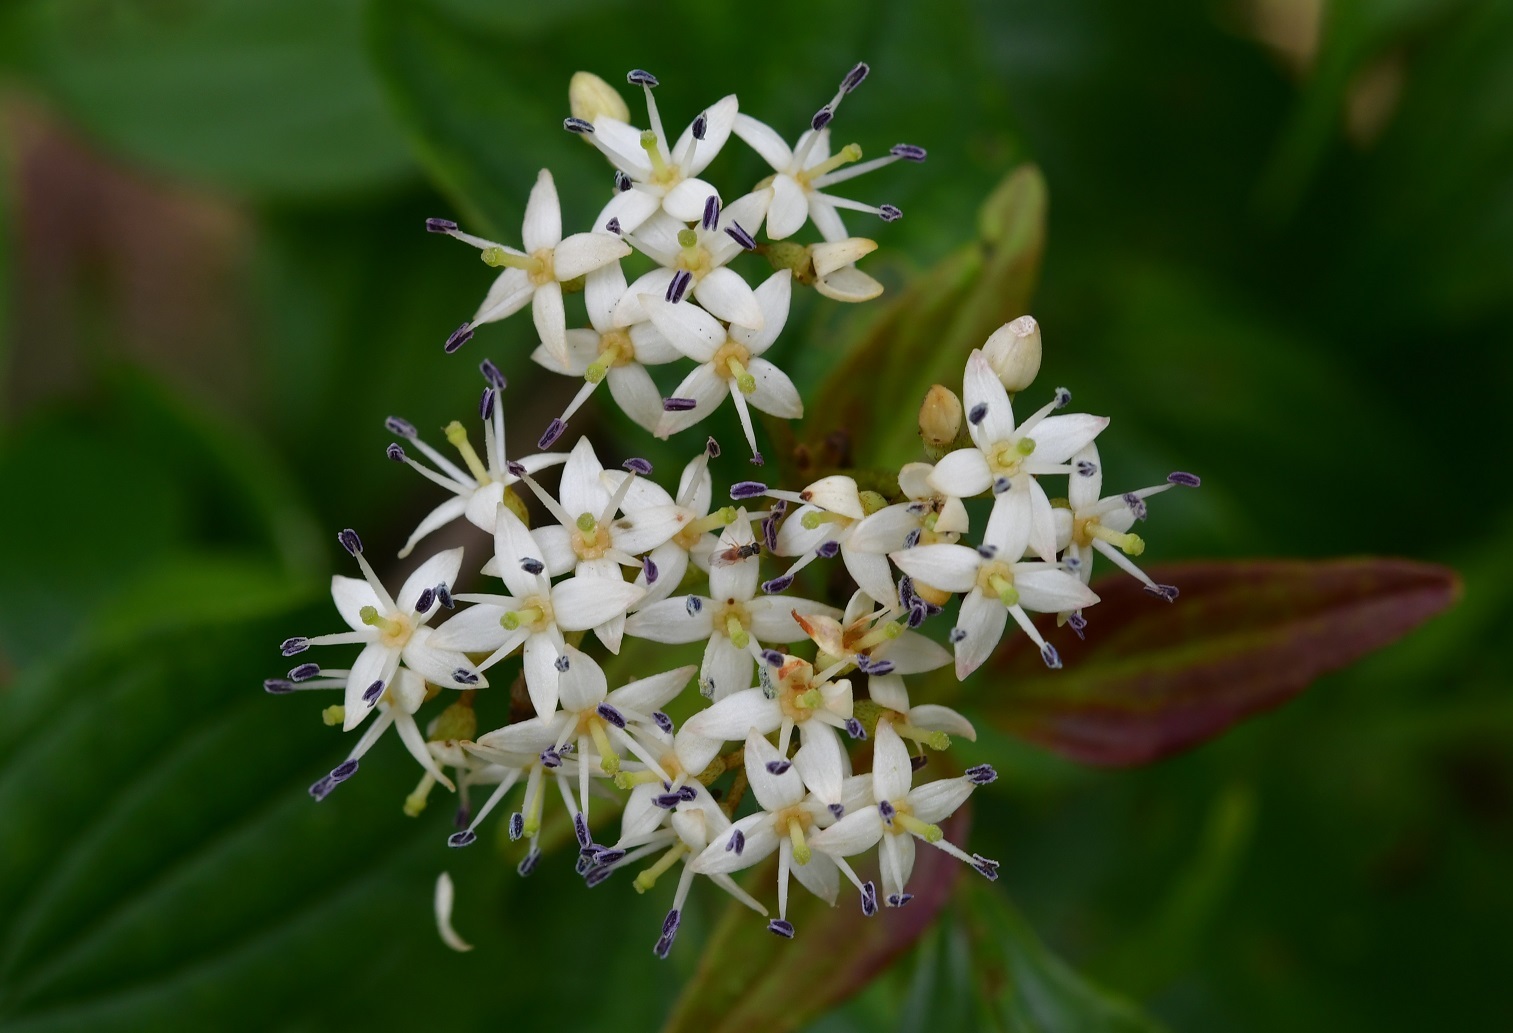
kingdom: Plantae
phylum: Tracheophyta
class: Magnoliopsida
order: Cornales
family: Cornaceae
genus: Cornus
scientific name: Cornus excelsa
